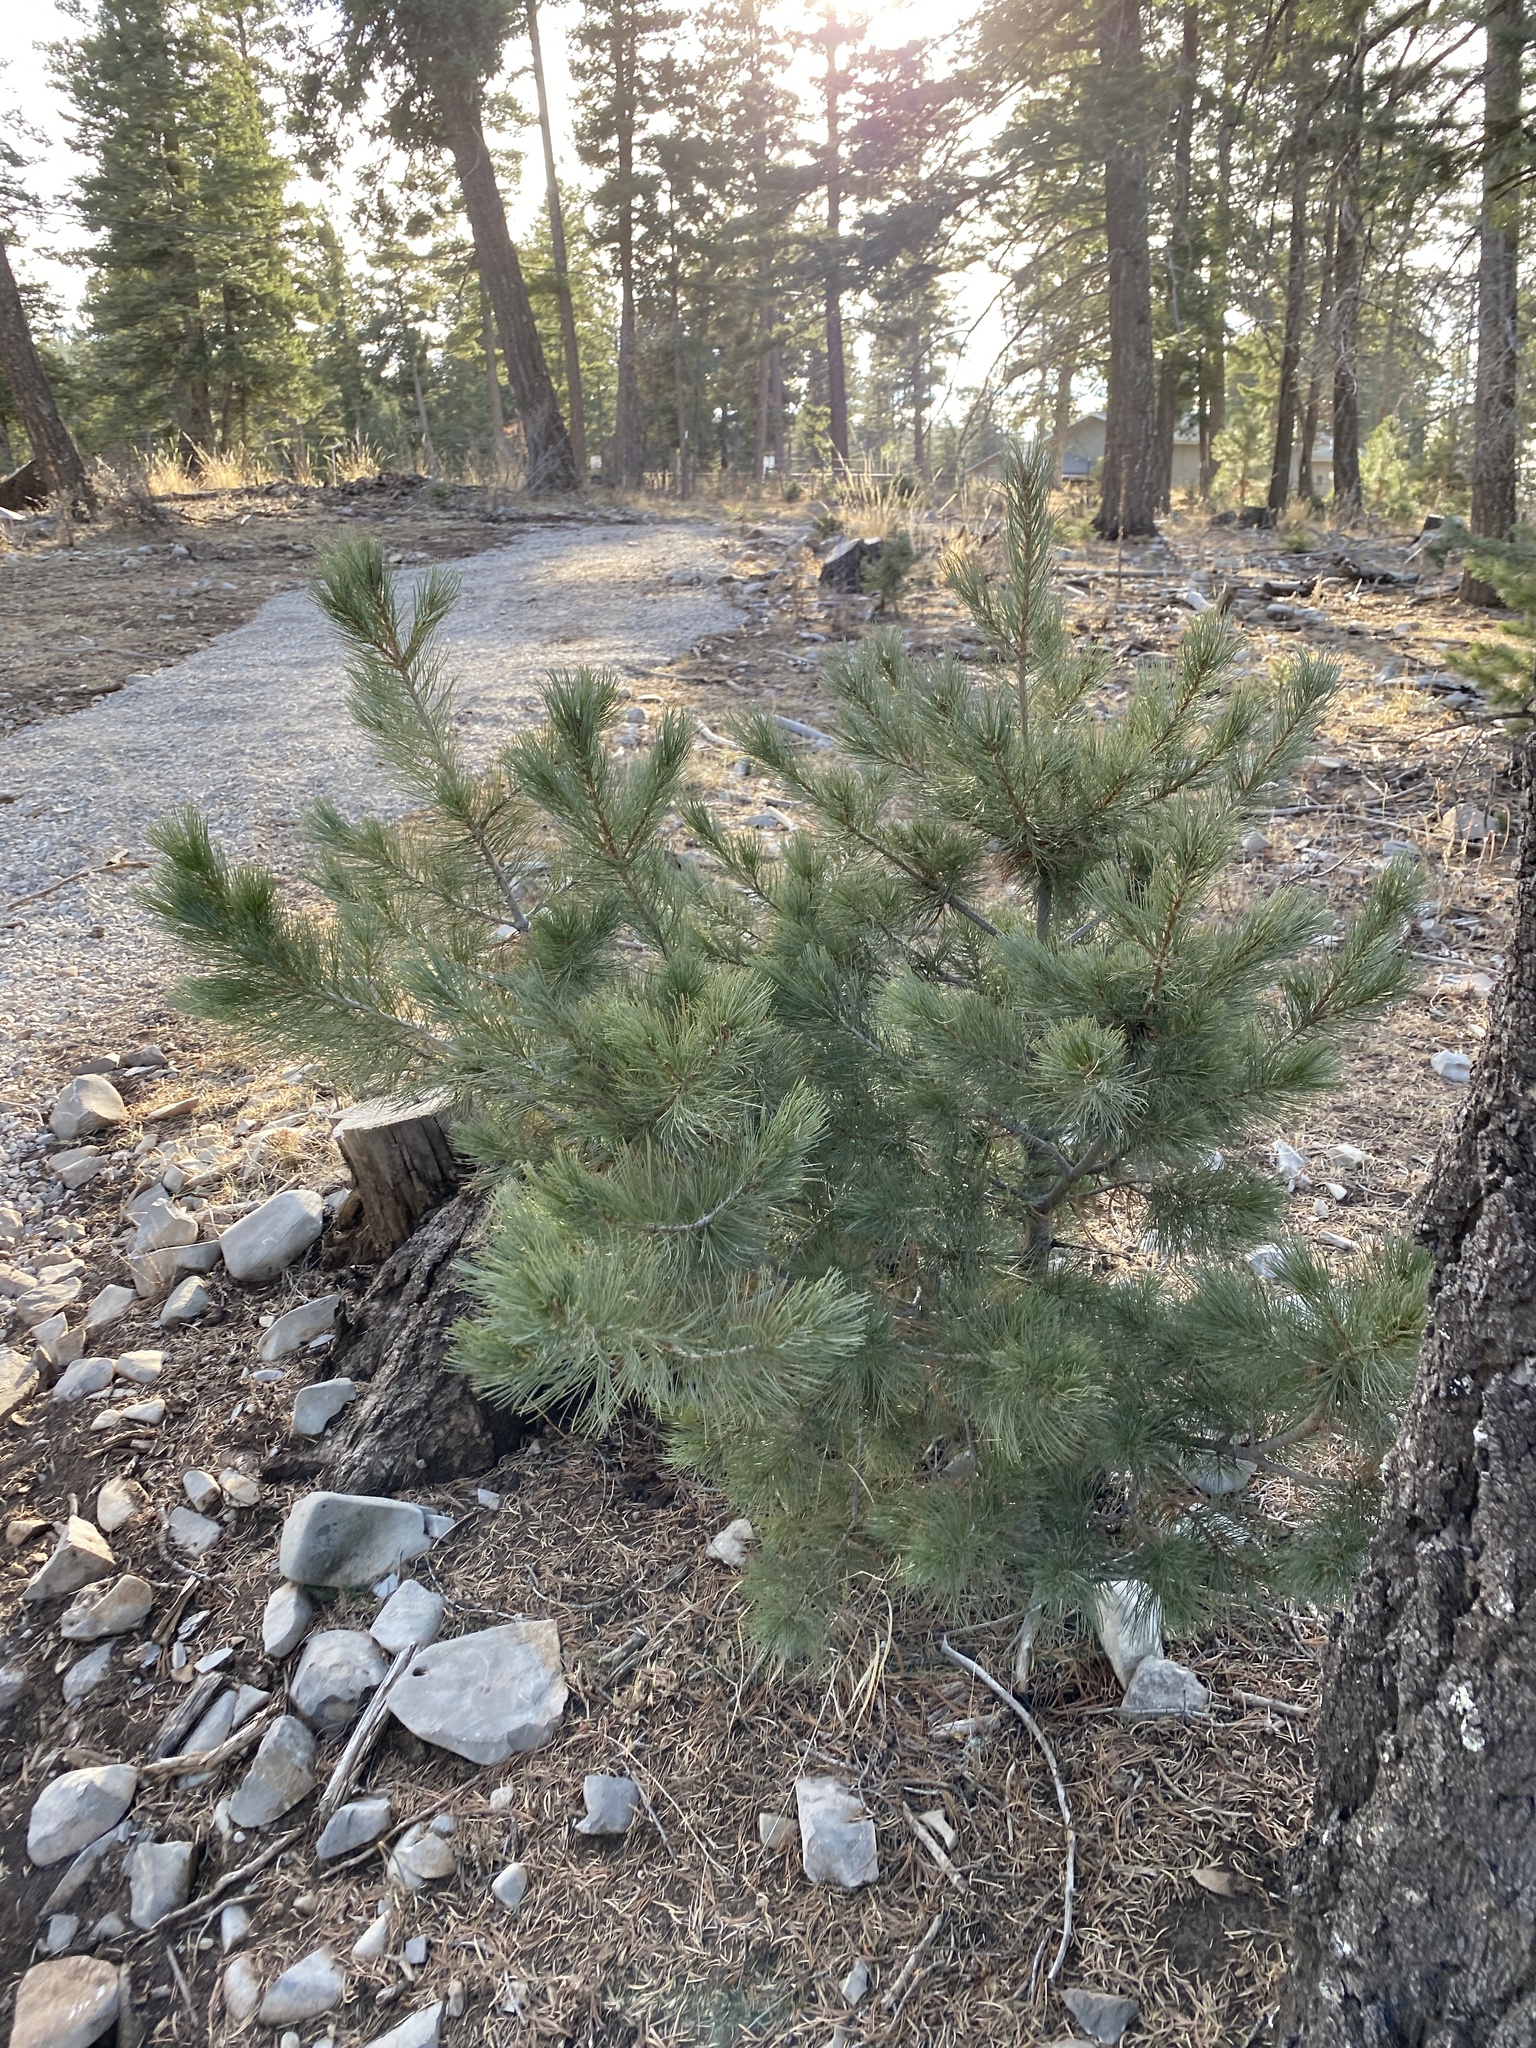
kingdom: Plantae
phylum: Tracheophyta
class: Pinopsida
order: Pinales
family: Pinaceae
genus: Pinus
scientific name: Pinus strobiformis
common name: Southwestern white pine
